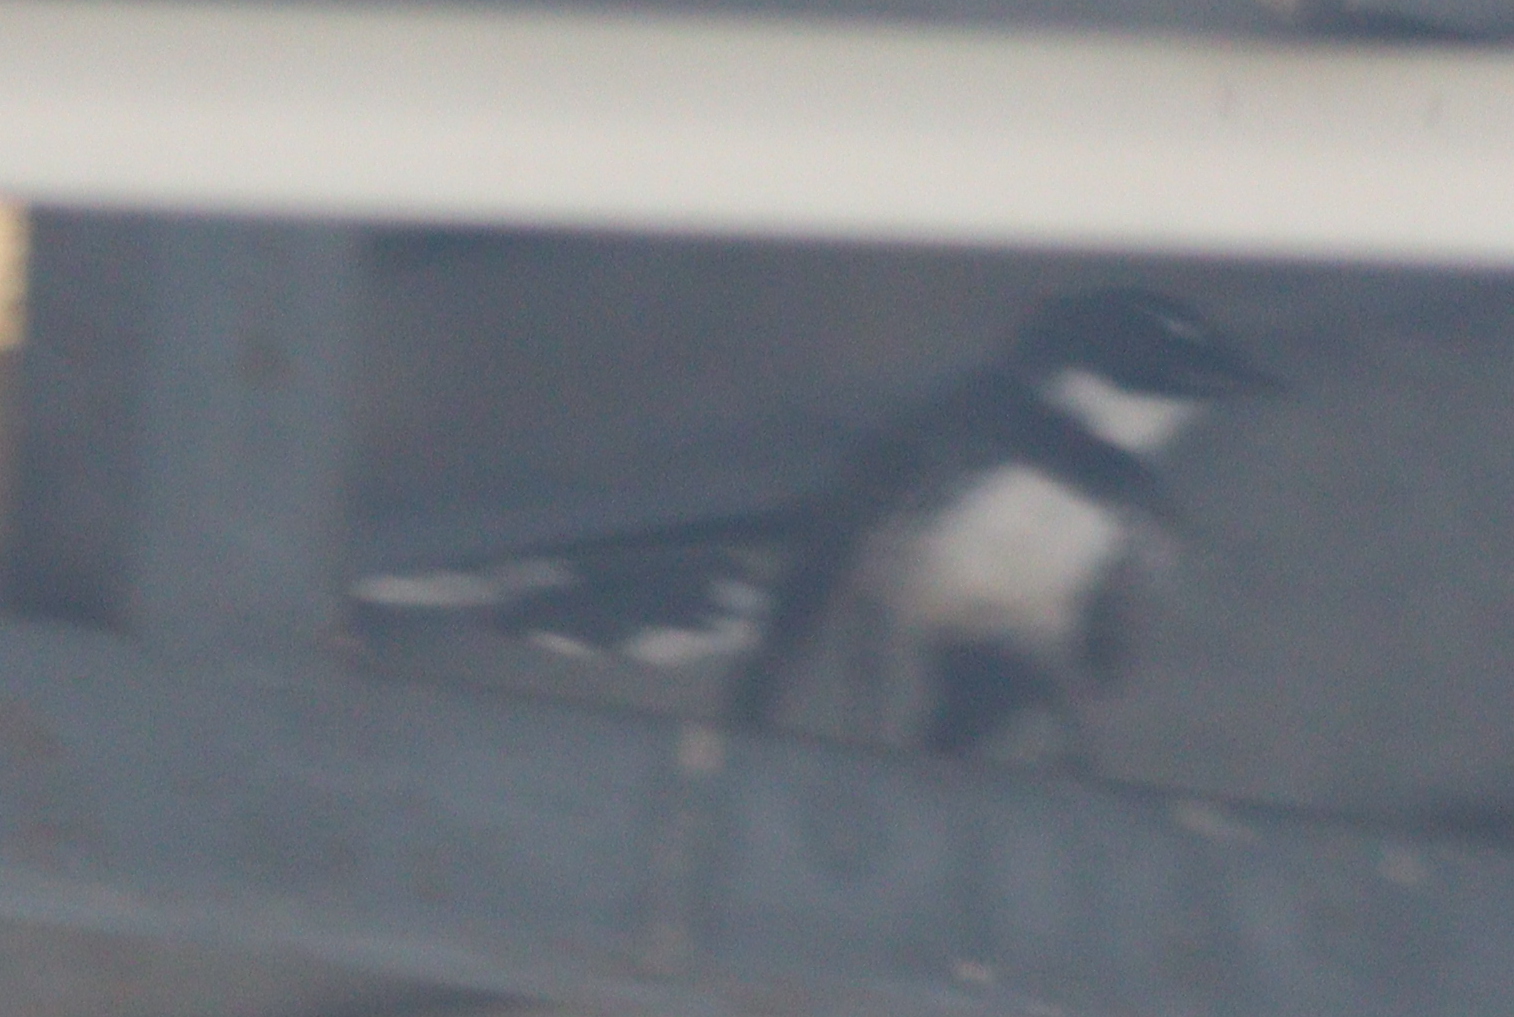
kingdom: Animalia
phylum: Chordata
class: Aves
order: Passeriformes
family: Rhipiduridae
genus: Rhipidura
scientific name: Rhipidura javanica
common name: Pied fantail
